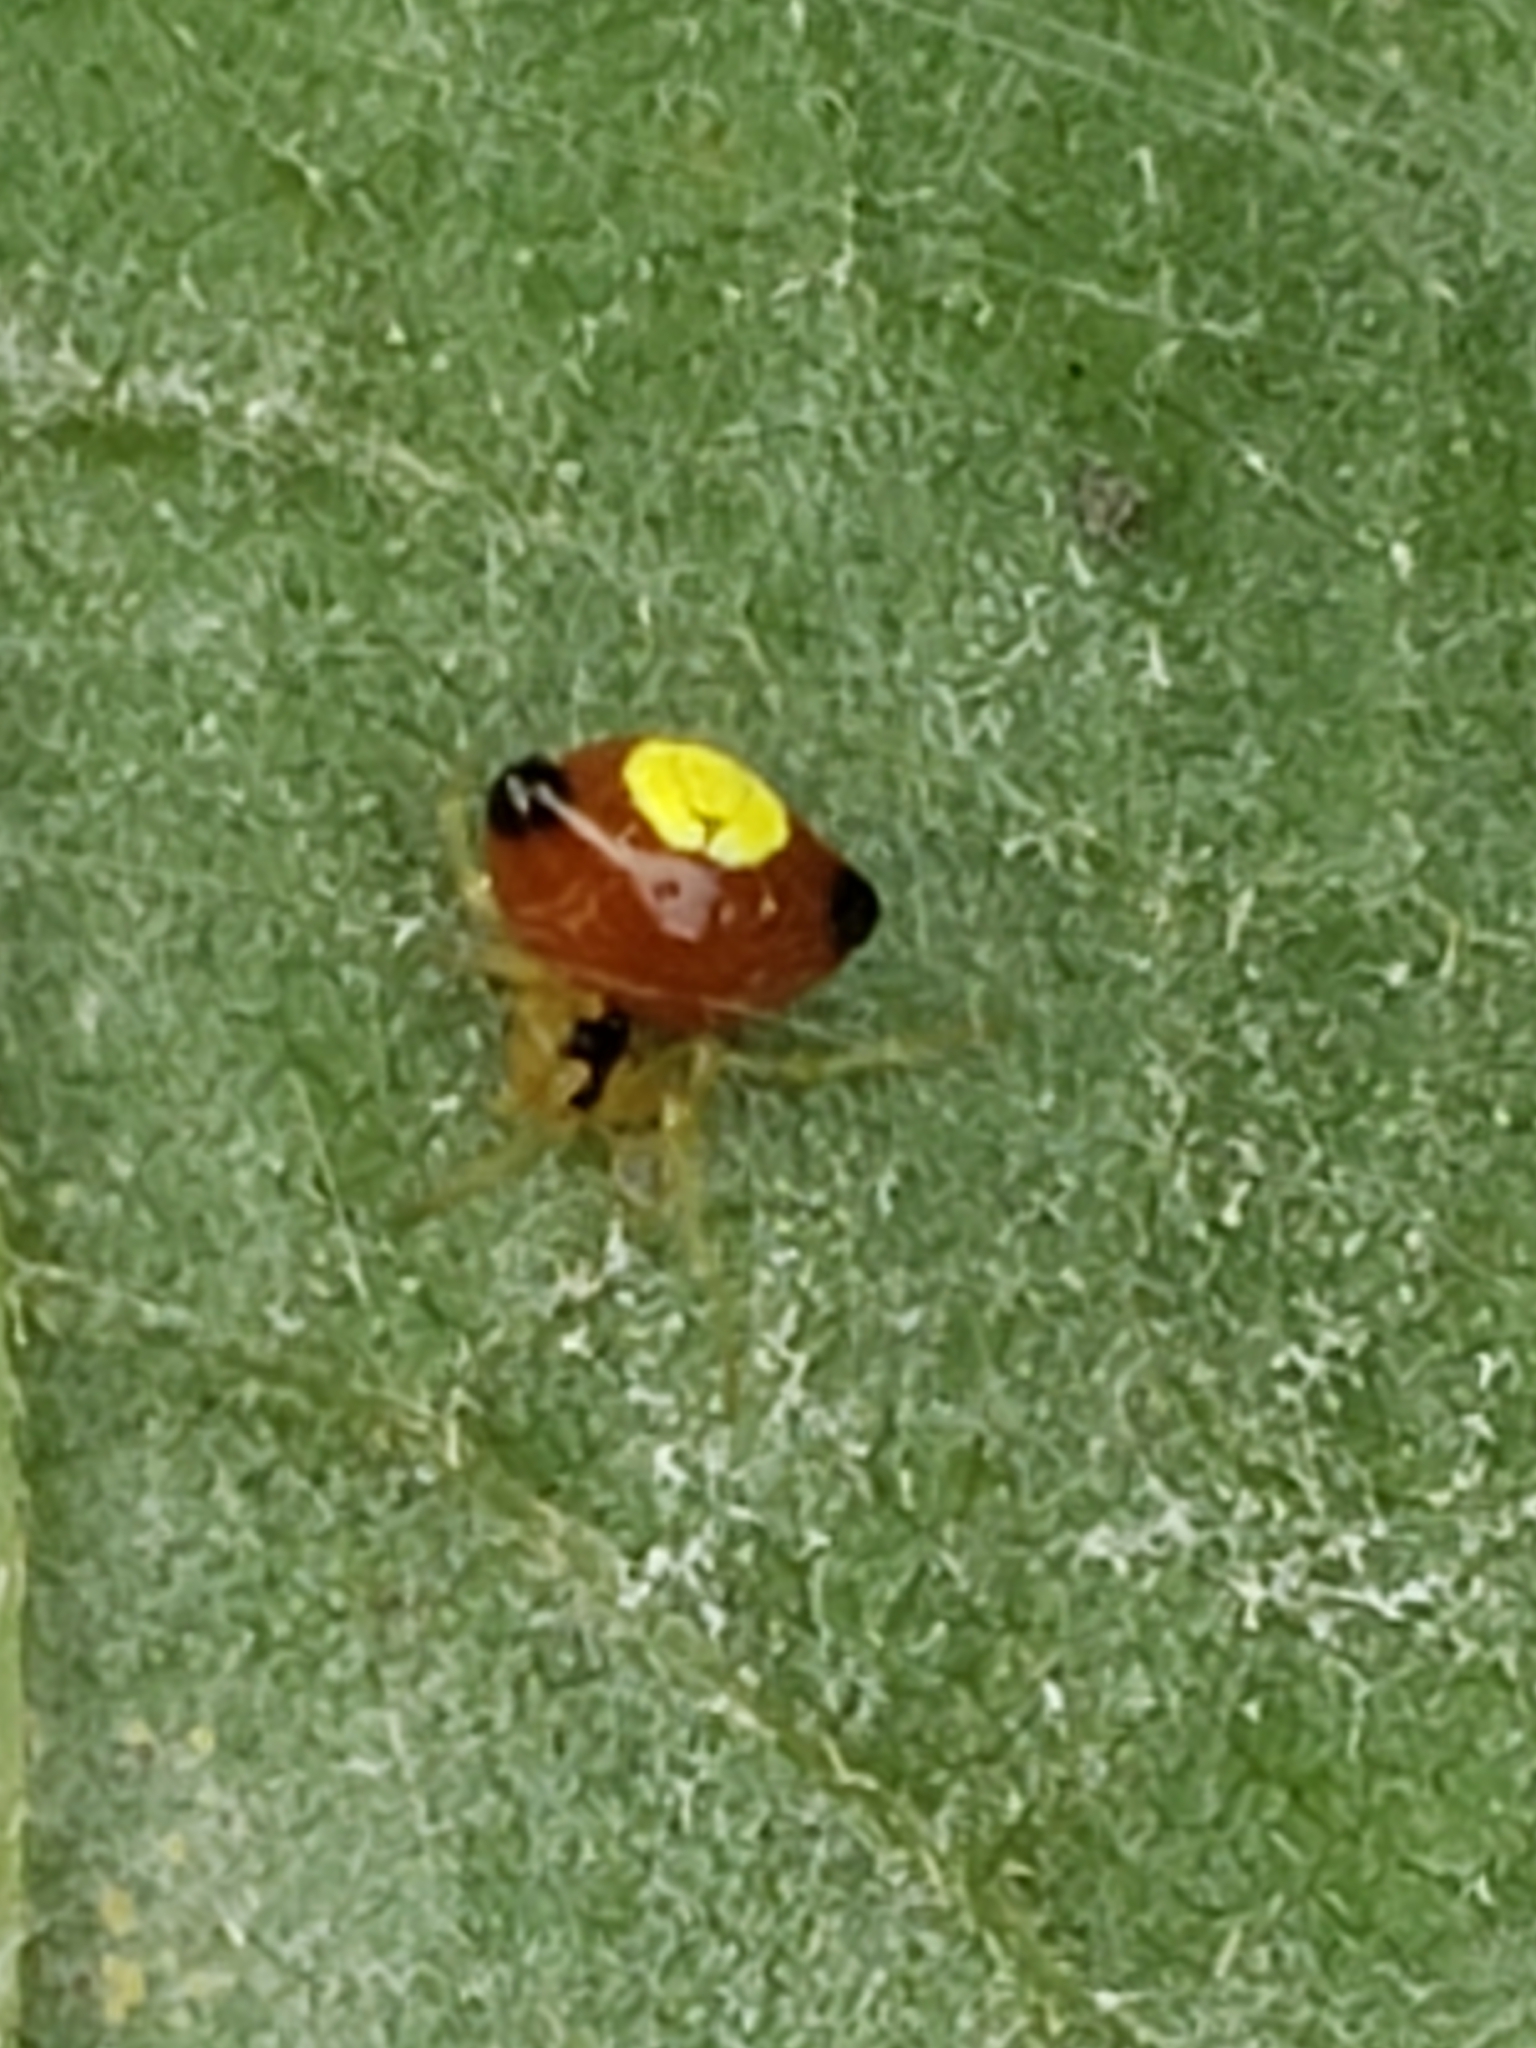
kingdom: Animalia
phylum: Arthropoda
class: Arachnida
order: Araneae
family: Theridiidae
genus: Theridula
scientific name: Theridula emertoni
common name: Emerton's bitubercled cobweaver
